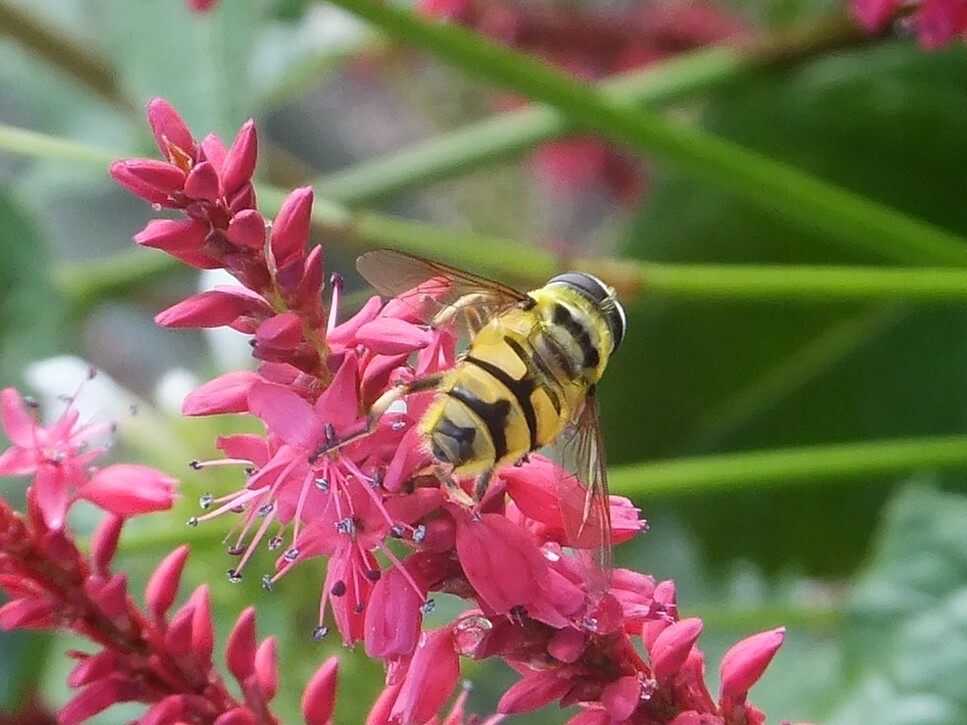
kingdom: Animalia
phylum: Arthropoda
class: Insecta
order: Diptera
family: Syrphidae
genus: Myathropa
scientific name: Myathropa florea
